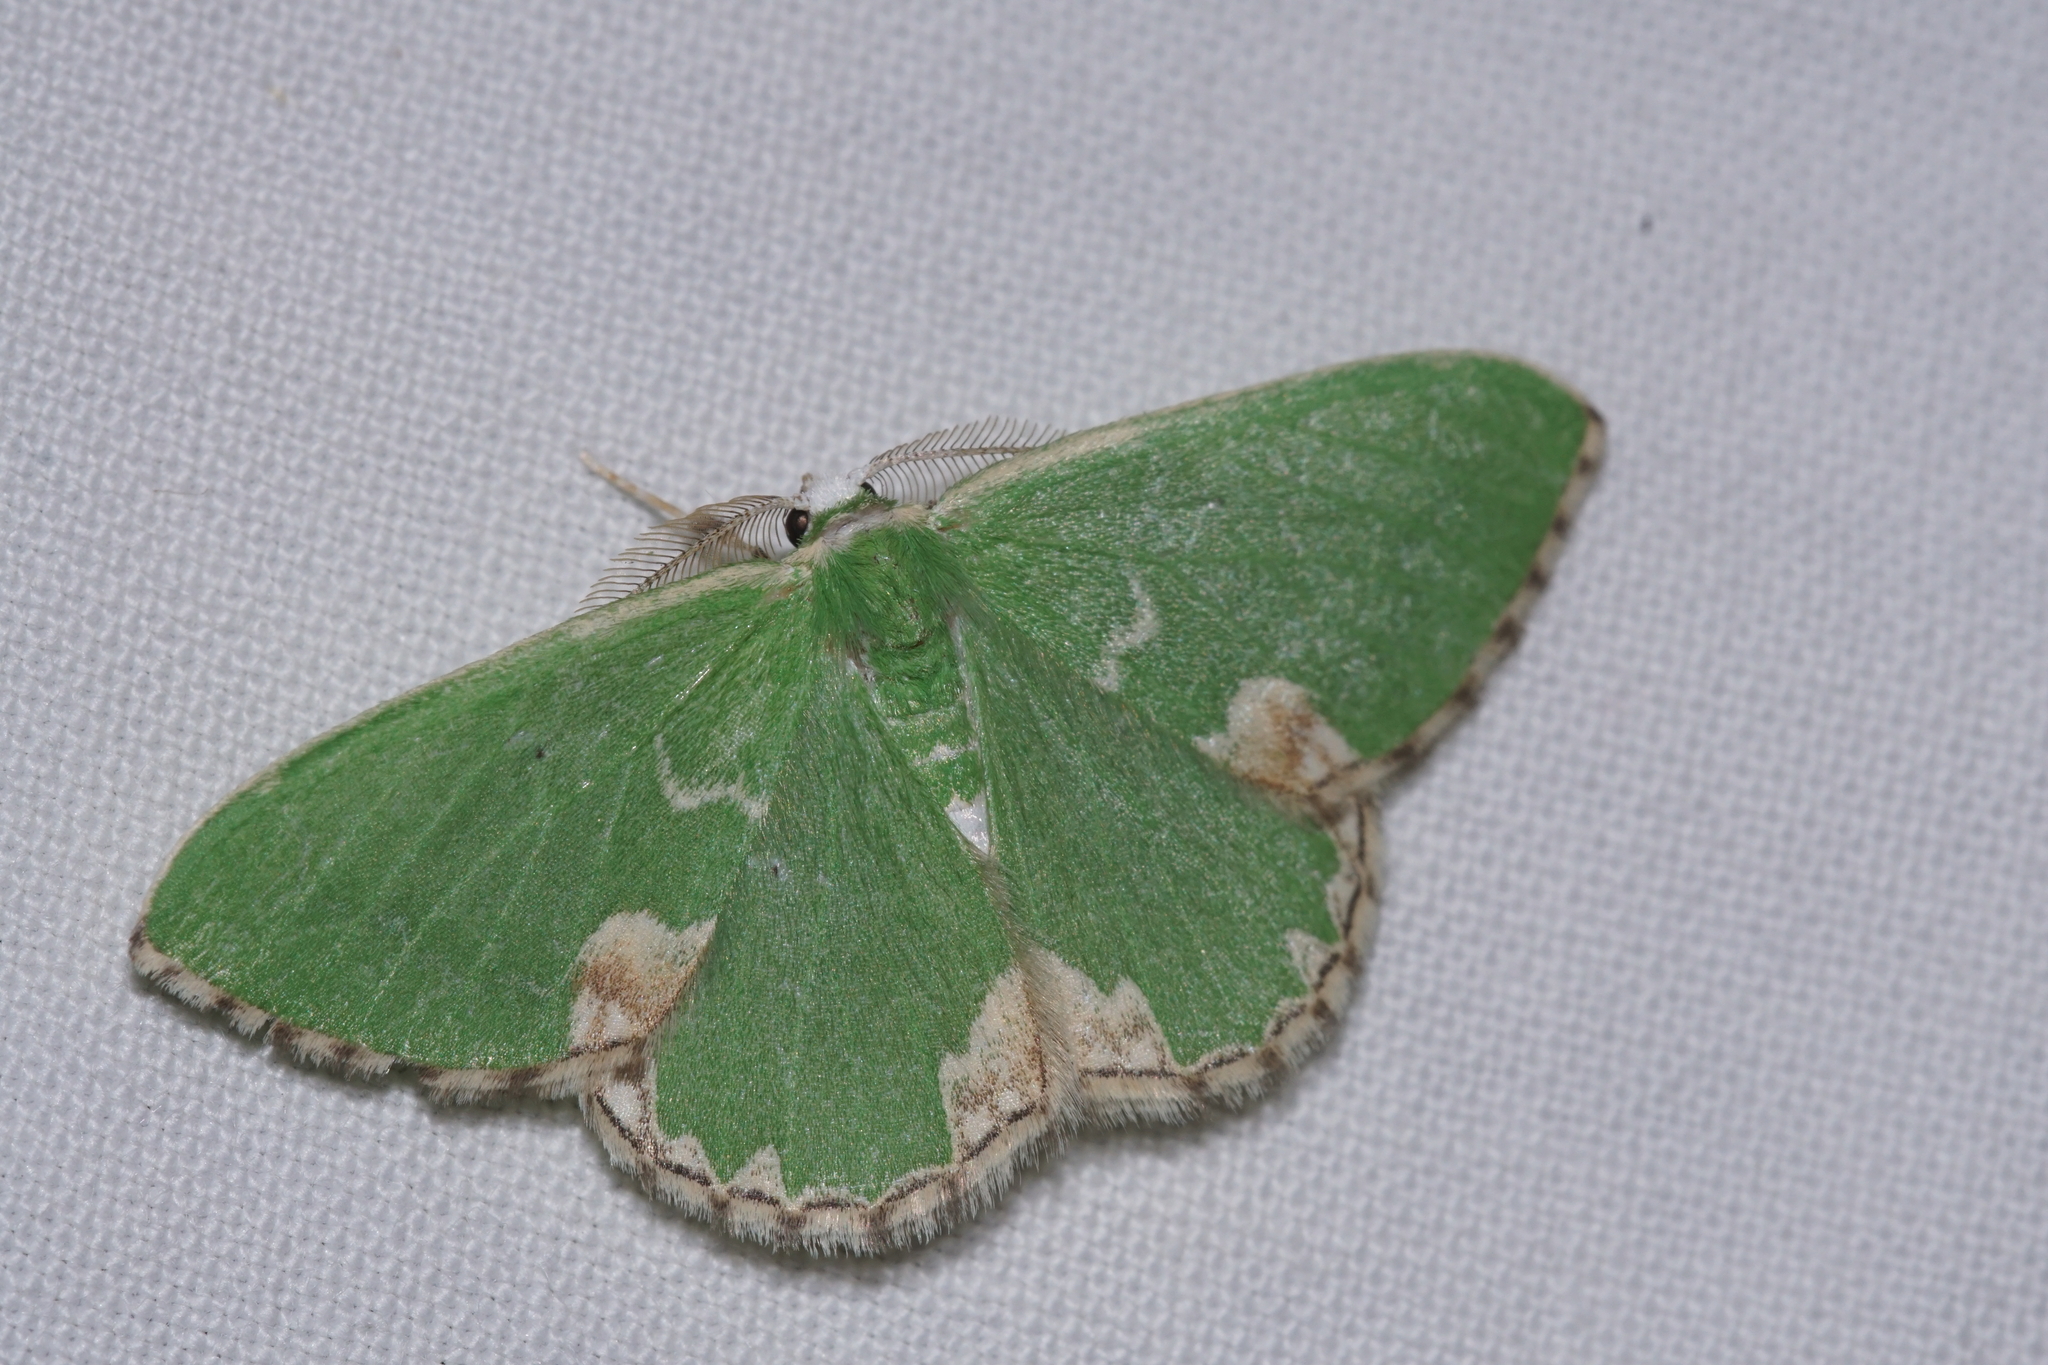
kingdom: Animalia
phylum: Arthropoda
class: Insecta
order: Lepidoptera
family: Geometridae
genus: Comibaena
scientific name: Comibaena bajularia
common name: Blotched emerald
